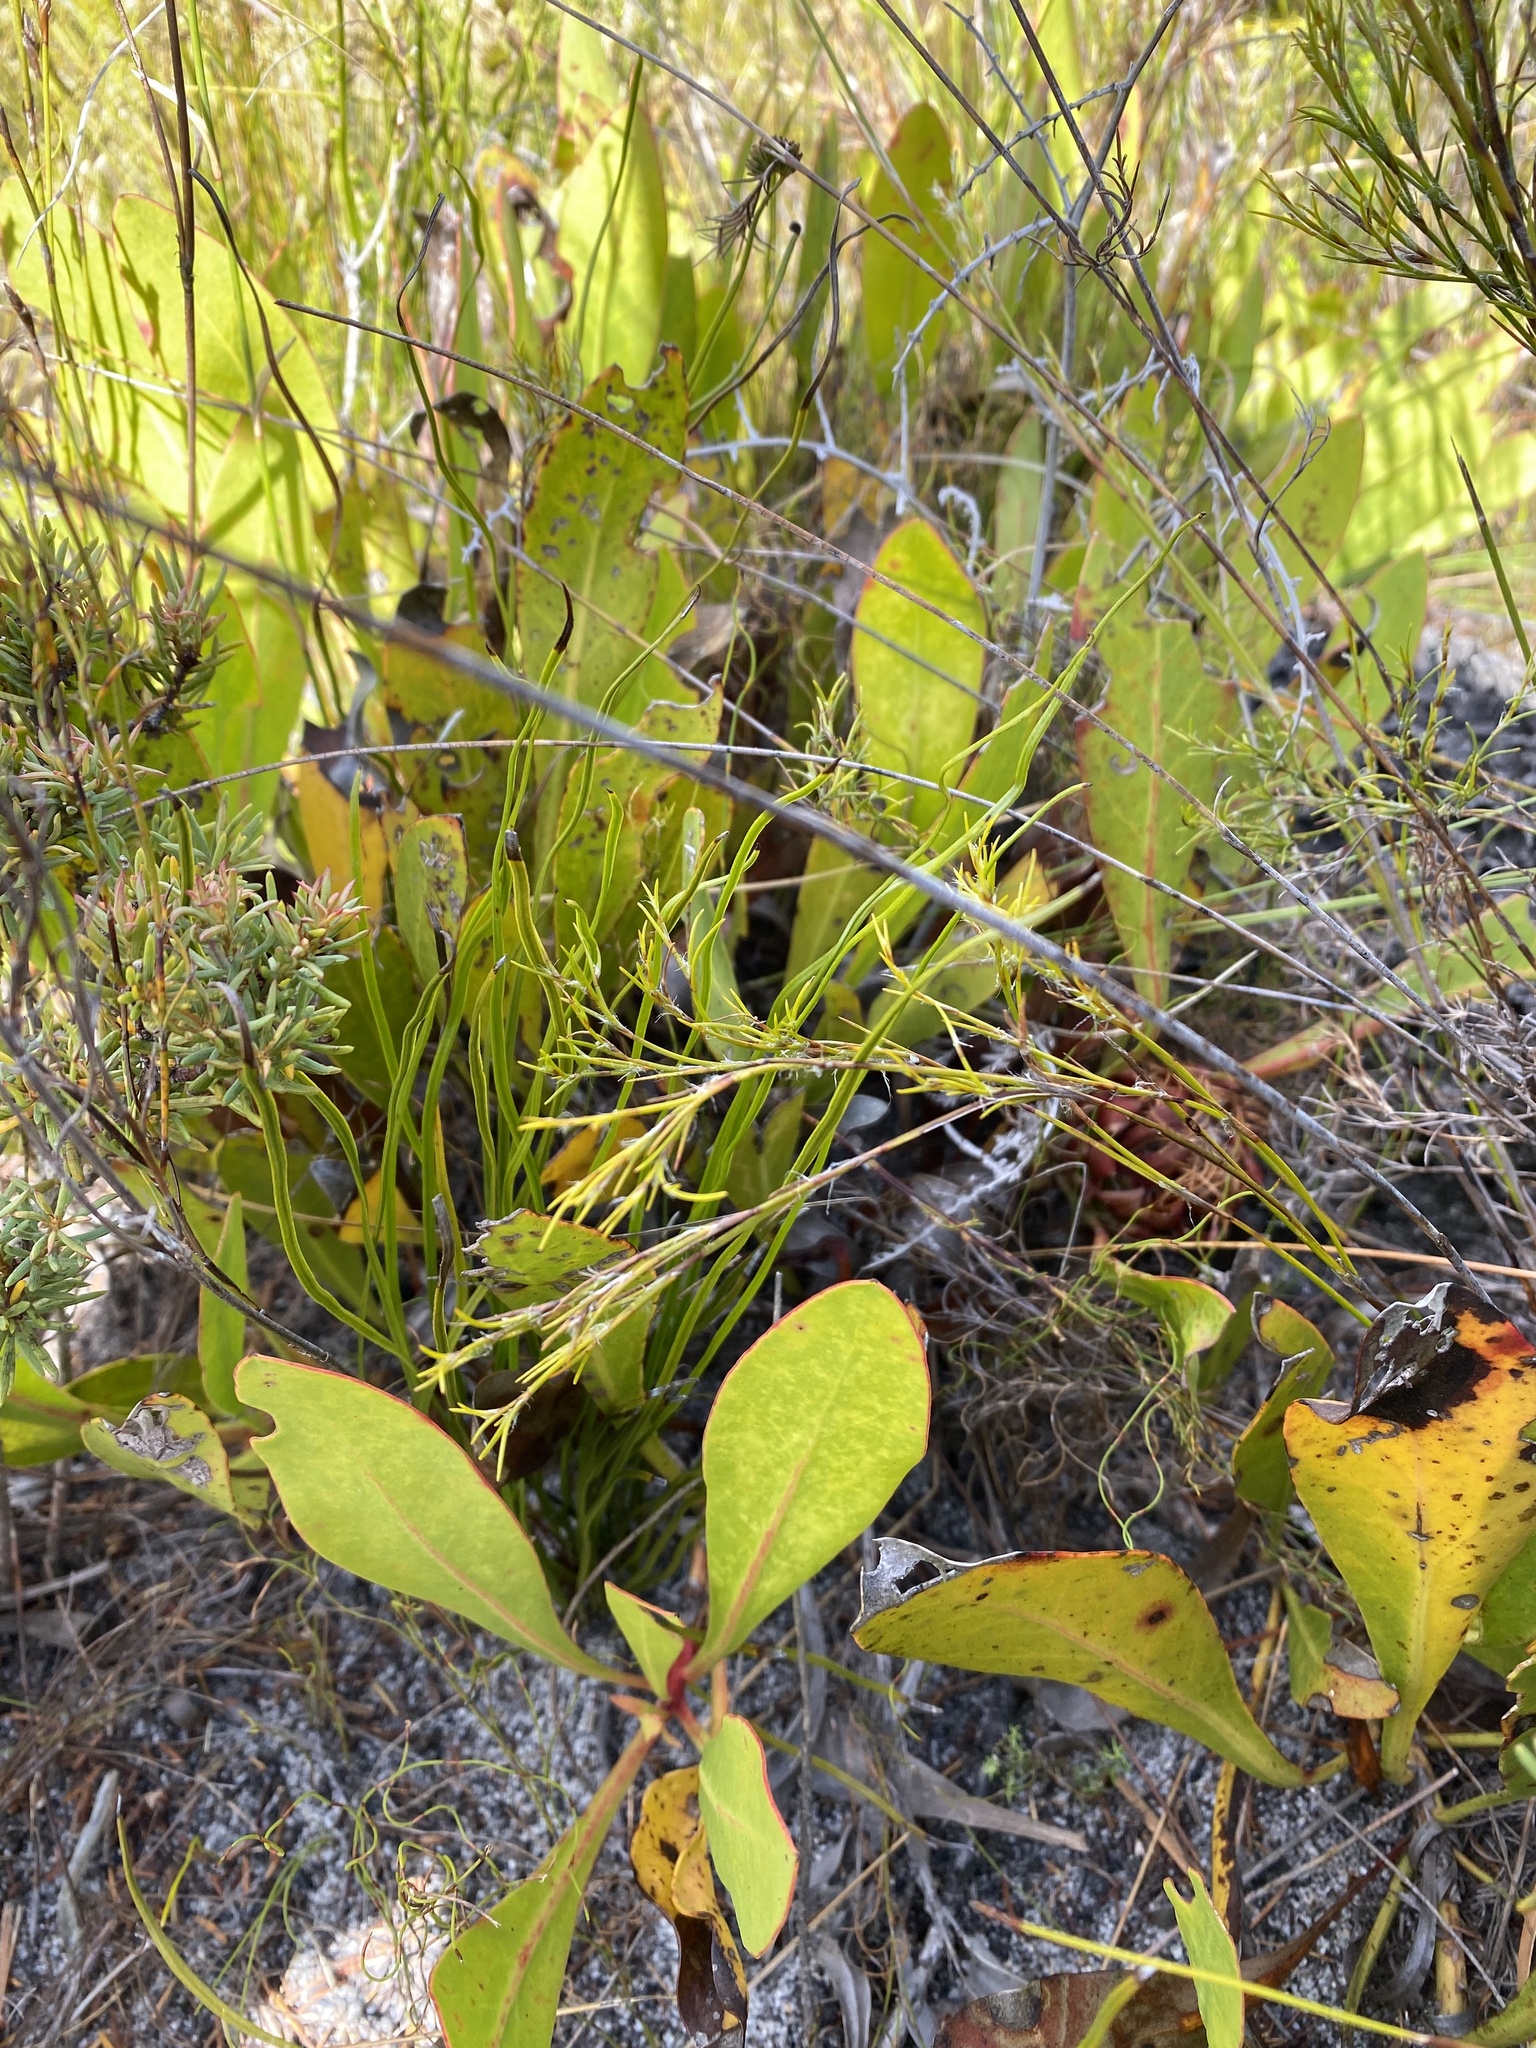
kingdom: Plantae
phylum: Tracheophyta
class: Magnoliopsida
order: Proteales
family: Proteaceae
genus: Protea
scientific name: Protea acaulos
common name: Common ground sugarbush
